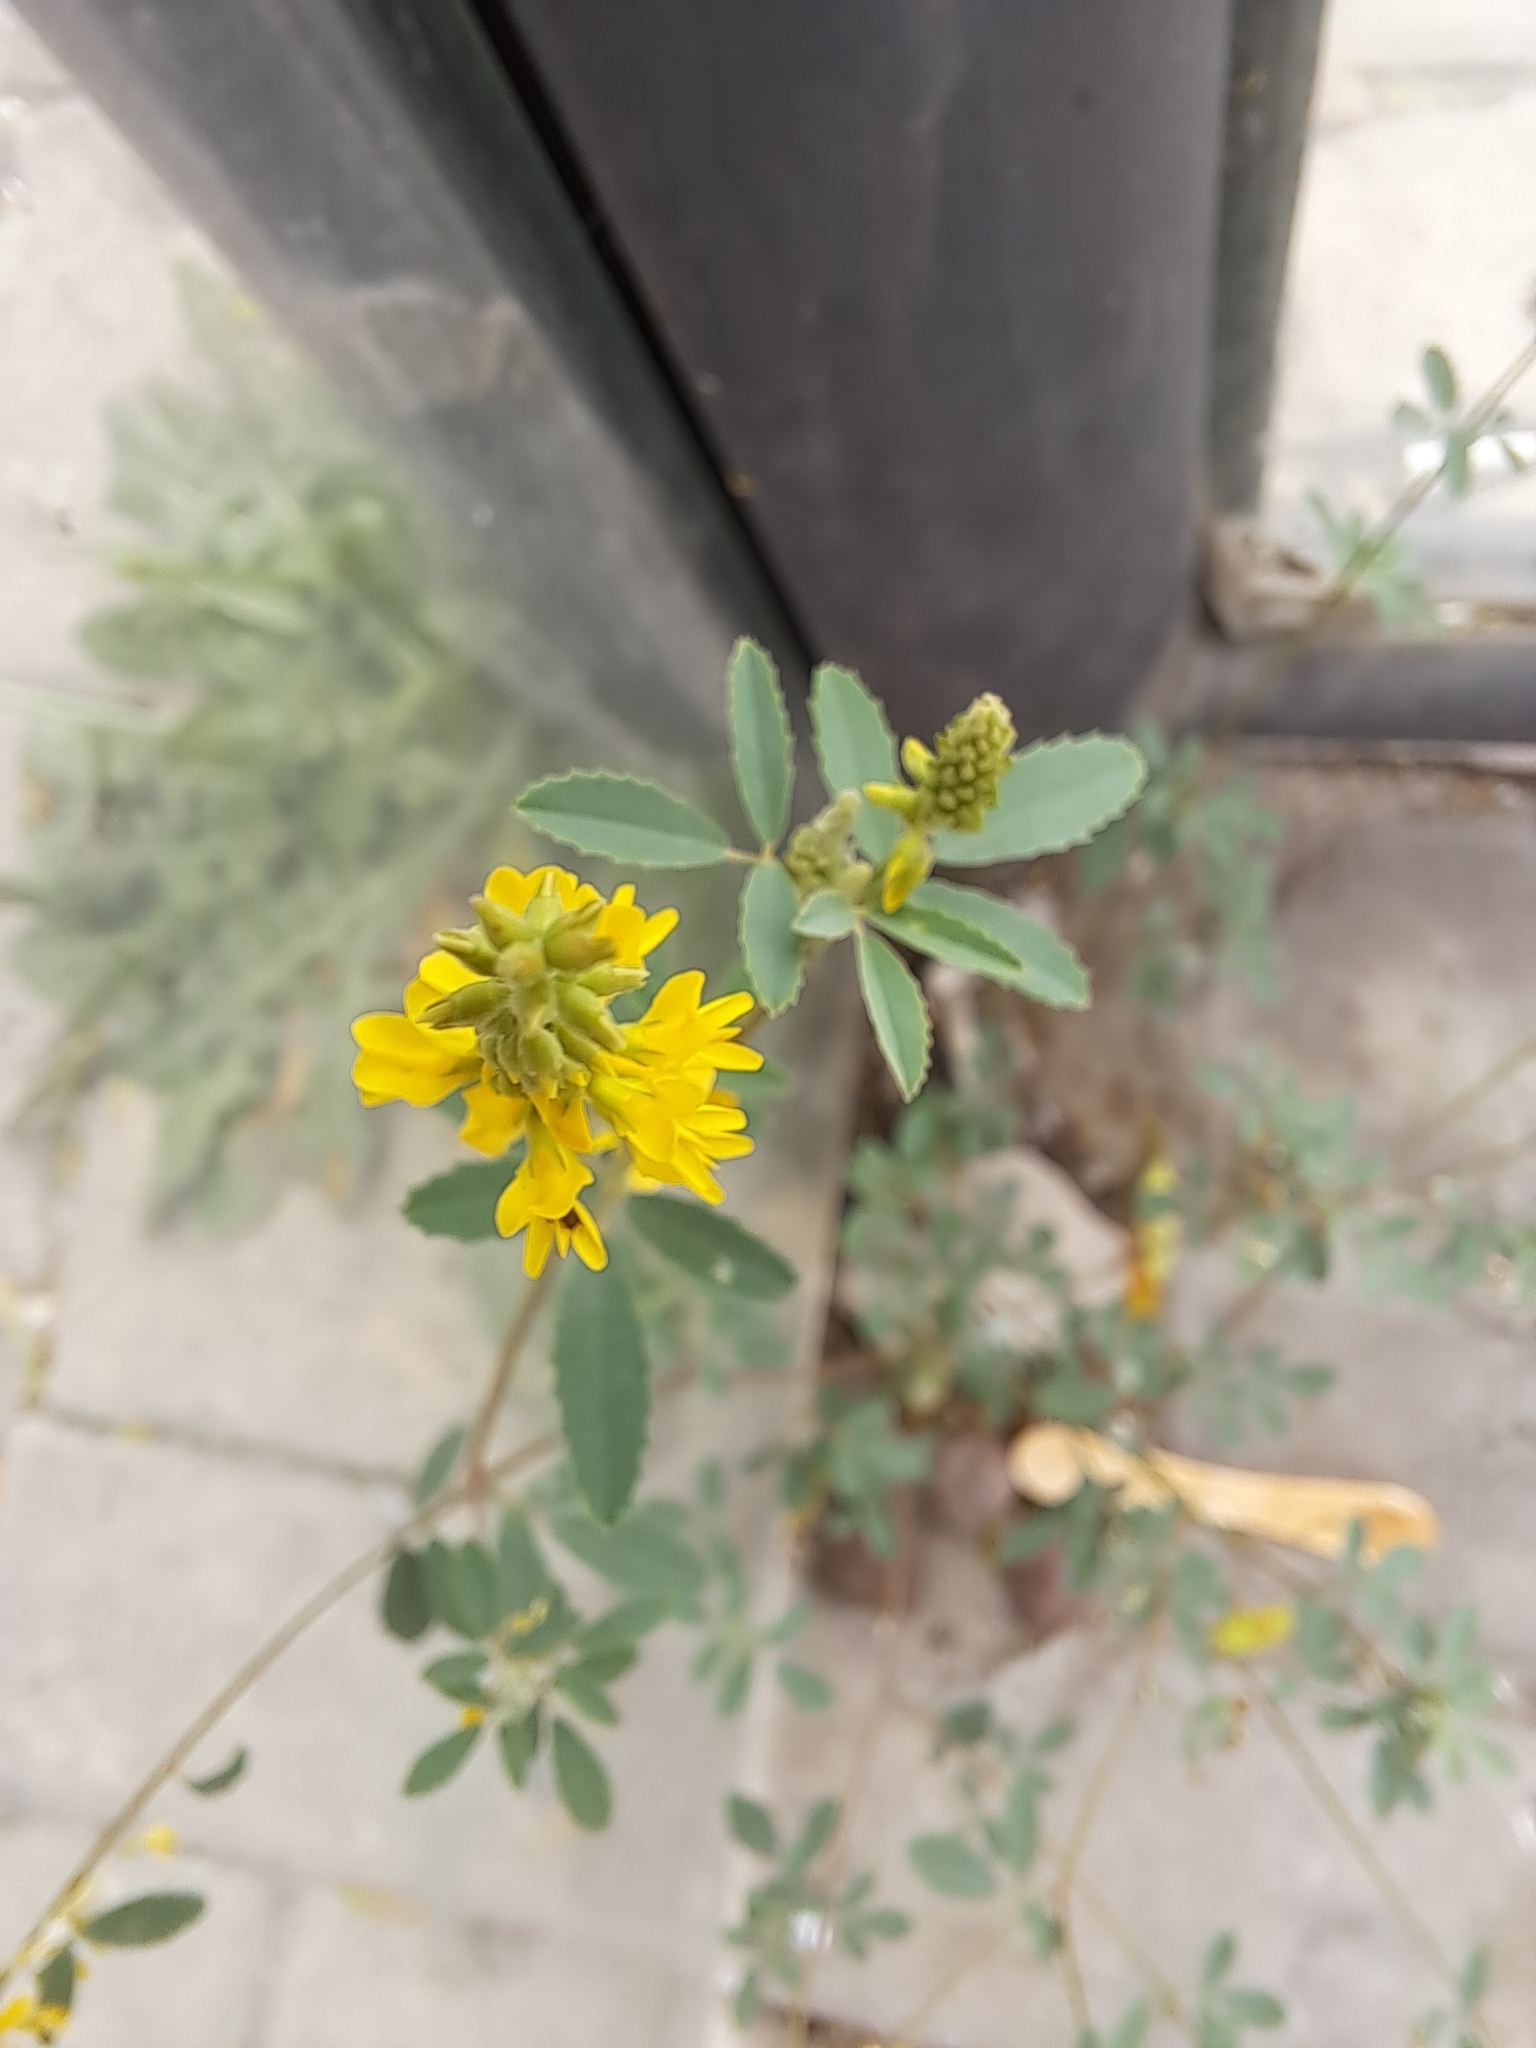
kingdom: Plantae
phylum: Tracheophyta
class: Magnoliopsida
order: Fabales
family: Fabaceae
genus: Melilotus
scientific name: Melilotus officinalis
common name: Sweetclover
